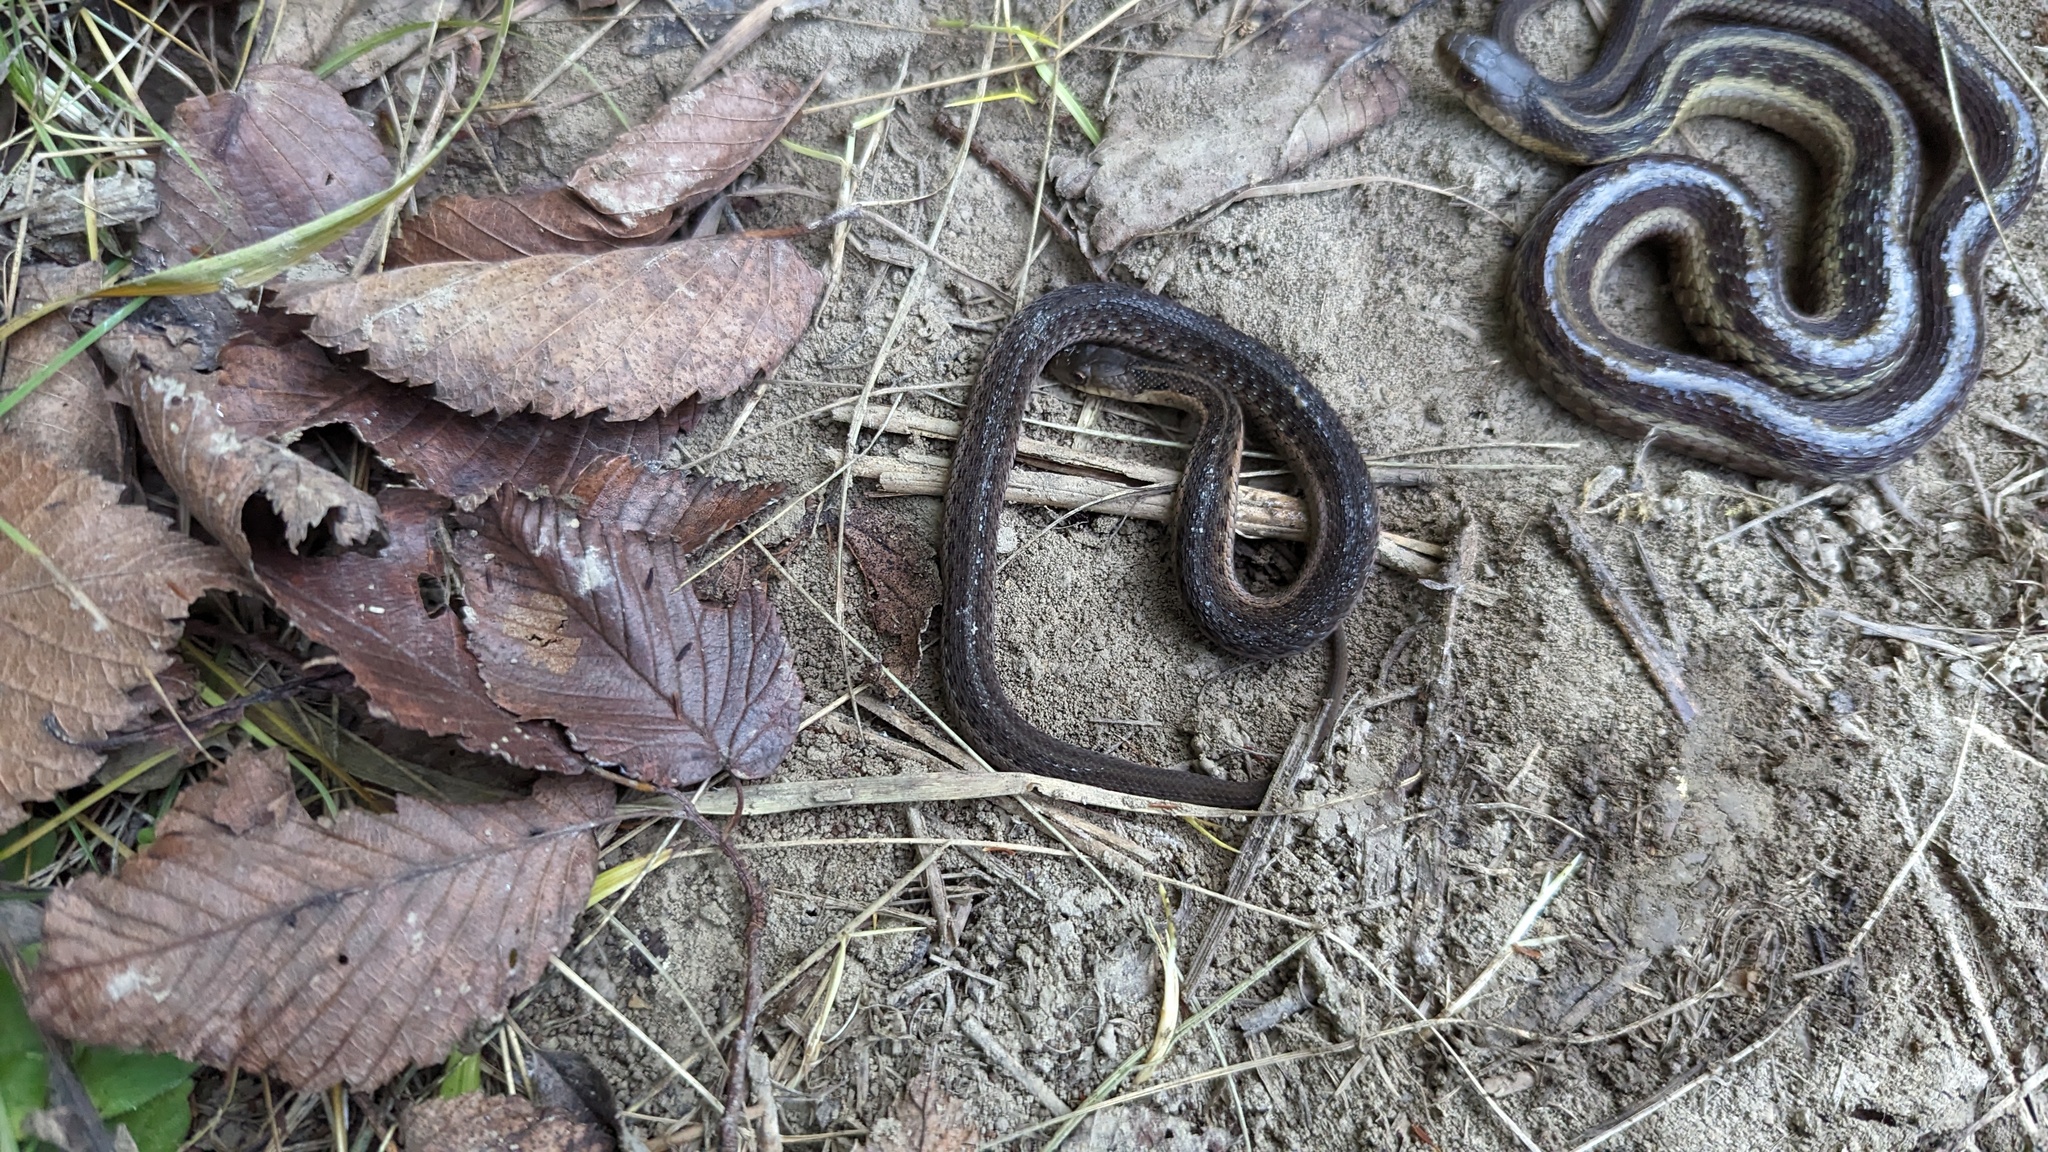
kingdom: Animalia
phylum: Chordata
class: Squamata
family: Colubridae
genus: Thamnophis
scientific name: Thamnophis sirtalis
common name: Common garter snake
